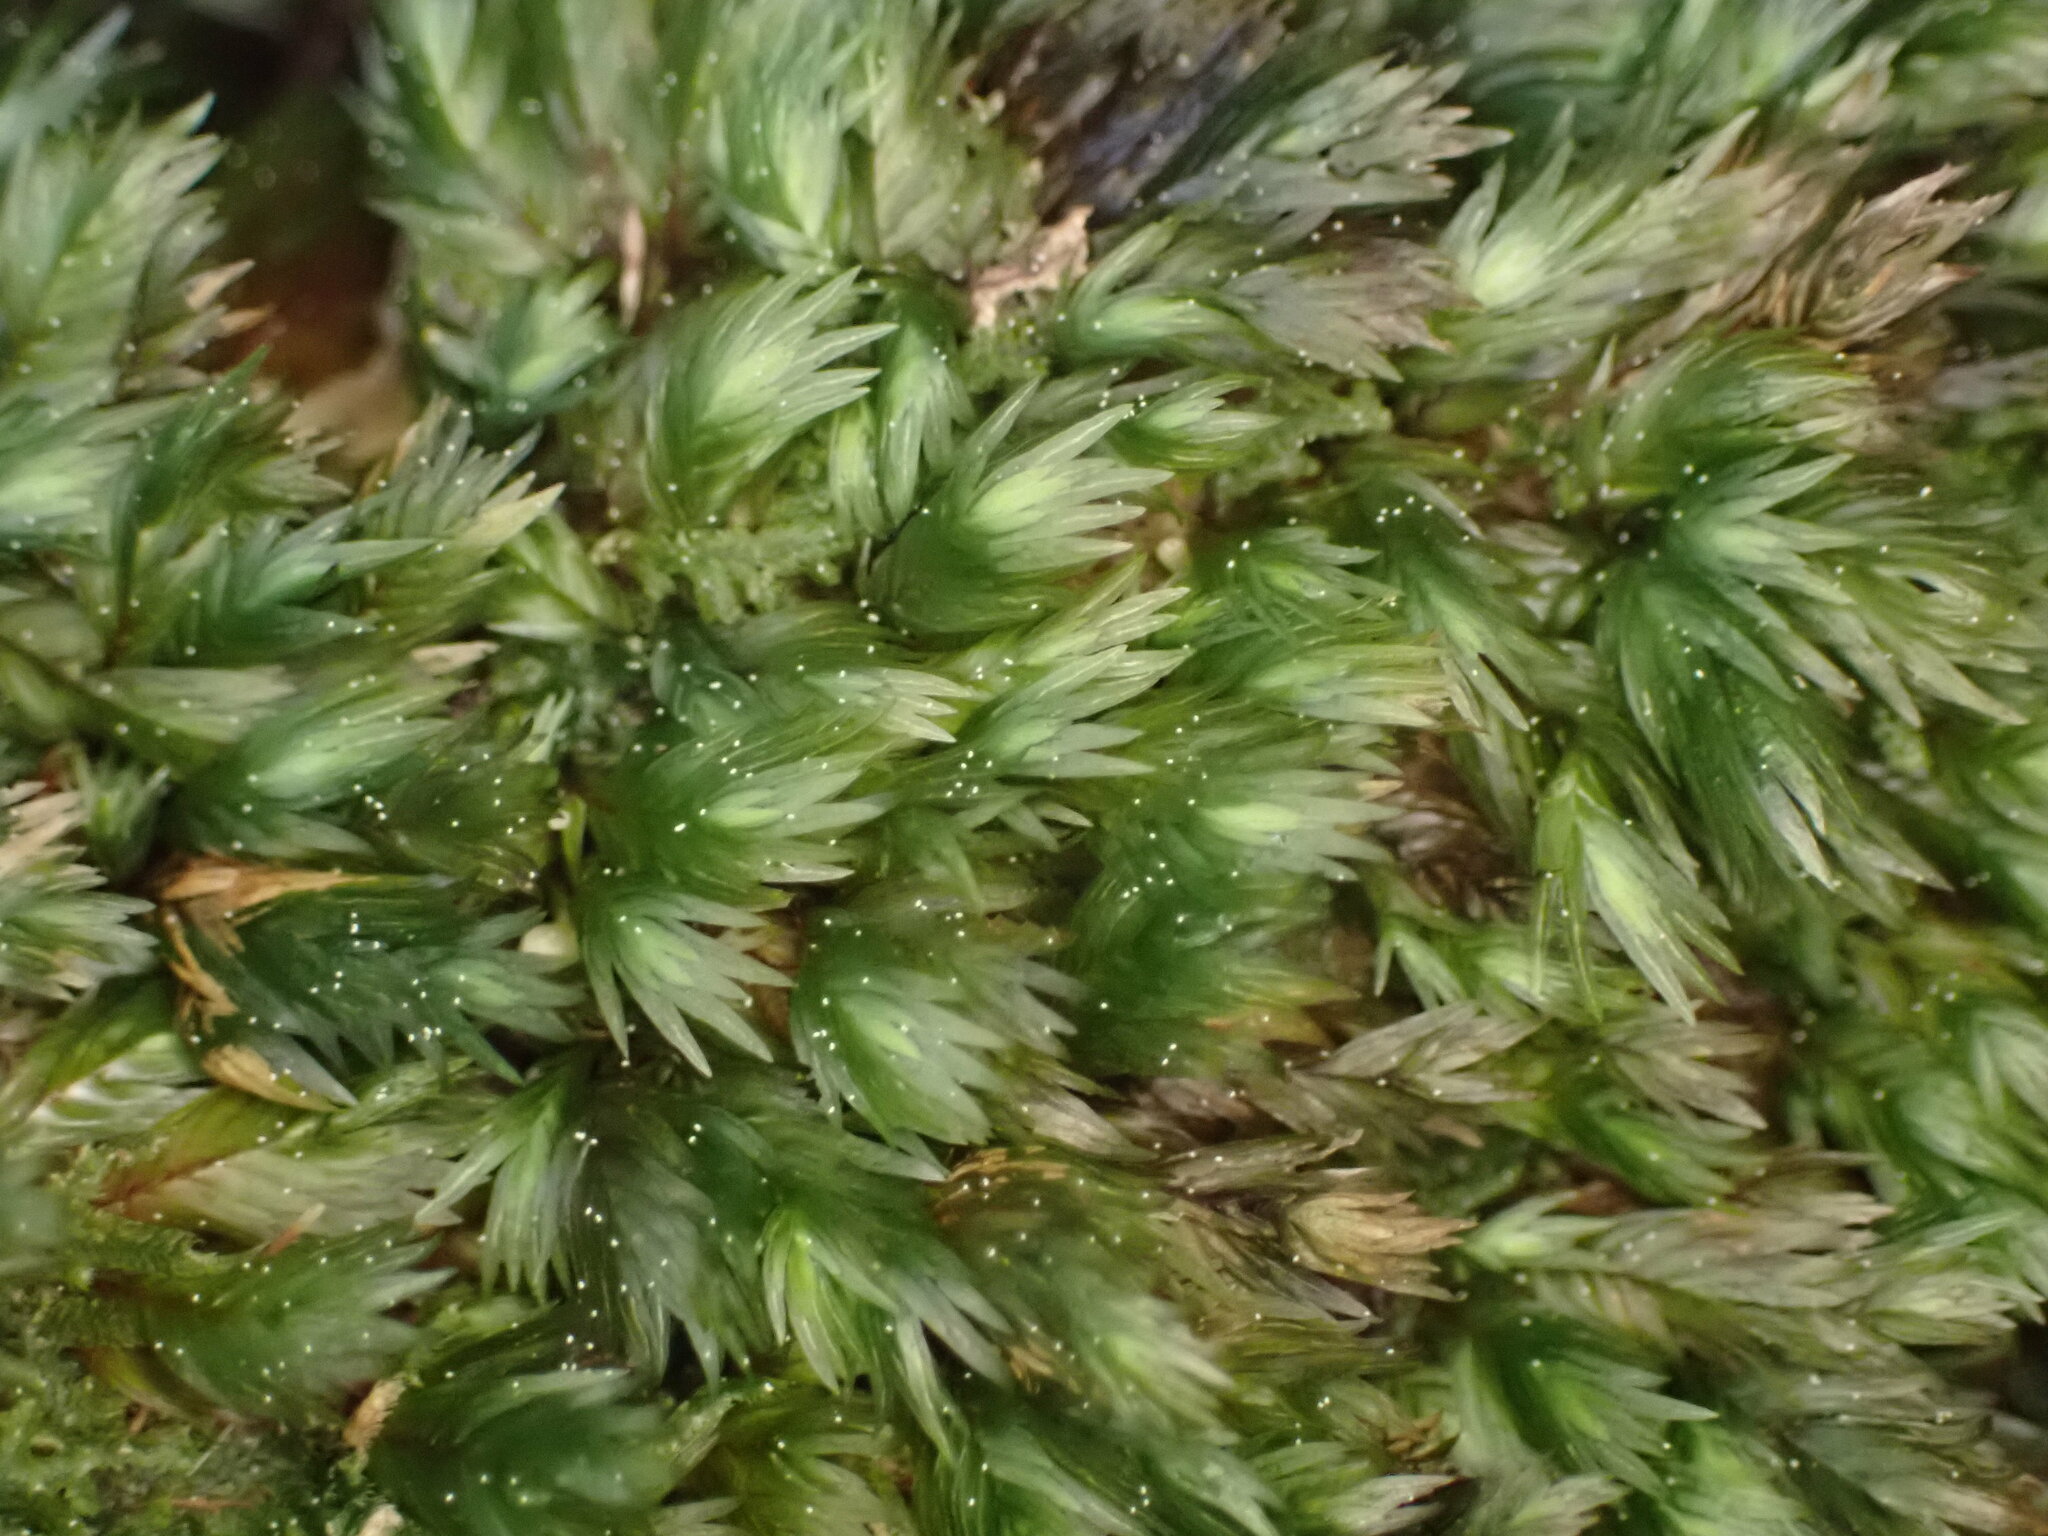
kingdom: Plantae
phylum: Bryophyta
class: Bryopsida
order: Dicranales
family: Fissidentaceae
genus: Fissidens
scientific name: Fissidens pallidus
